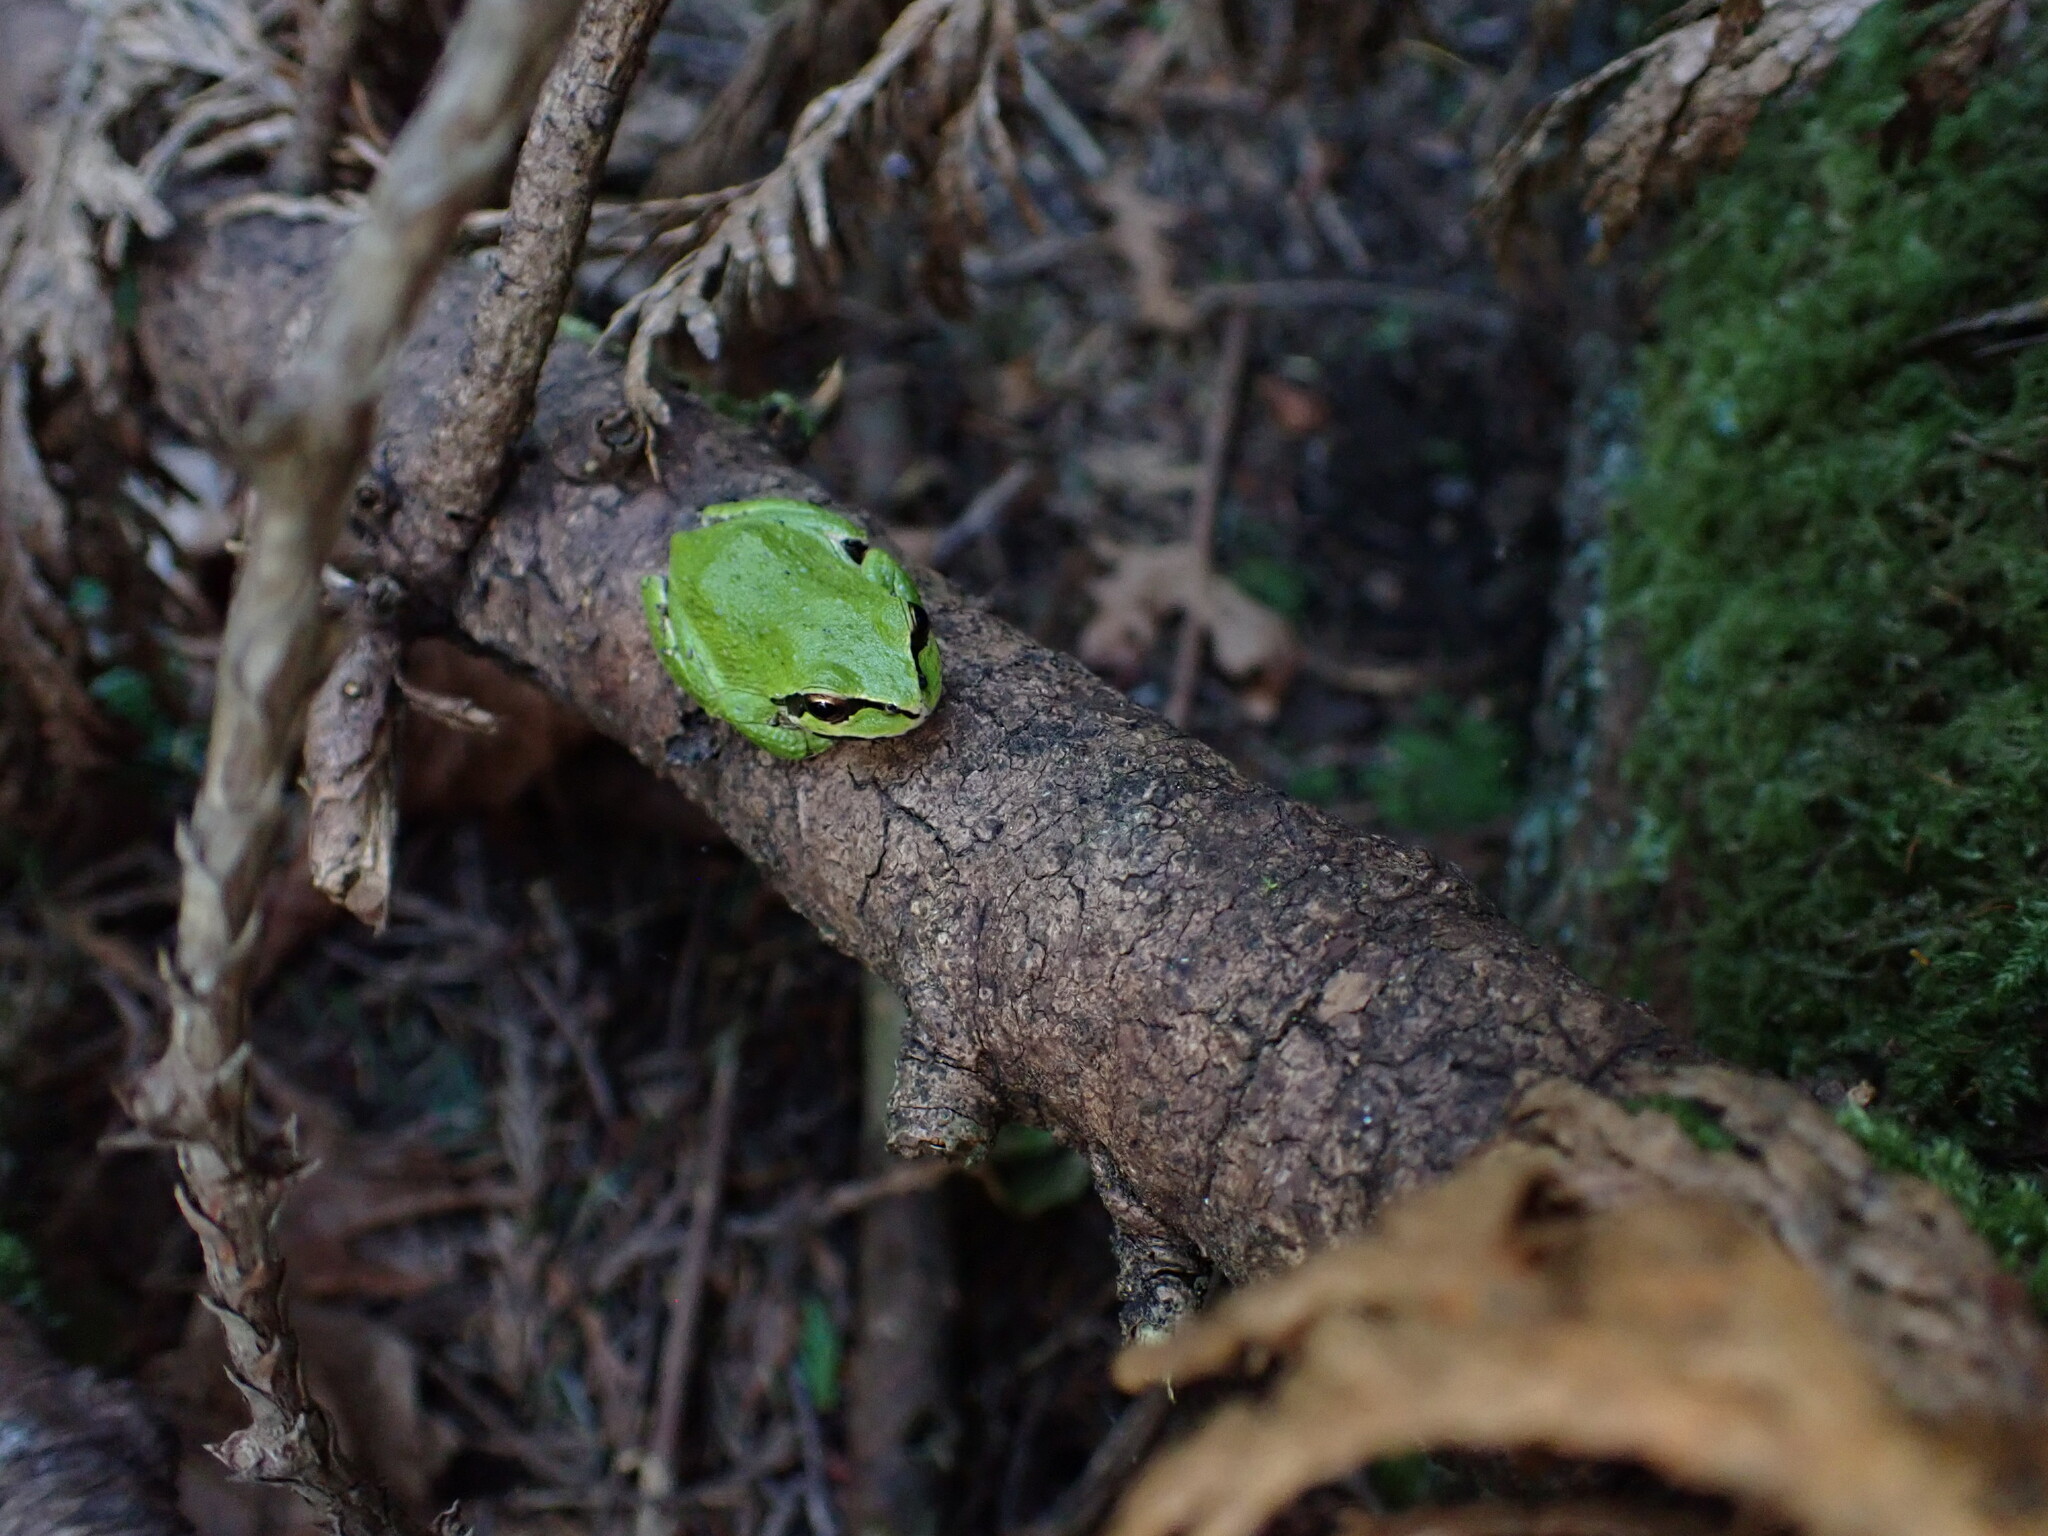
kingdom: Animalia
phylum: Chordata
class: Amphibia
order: Anura
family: Hylidae
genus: Pseudacris
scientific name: Pseudacris regilla
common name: Pacific chorus frog
